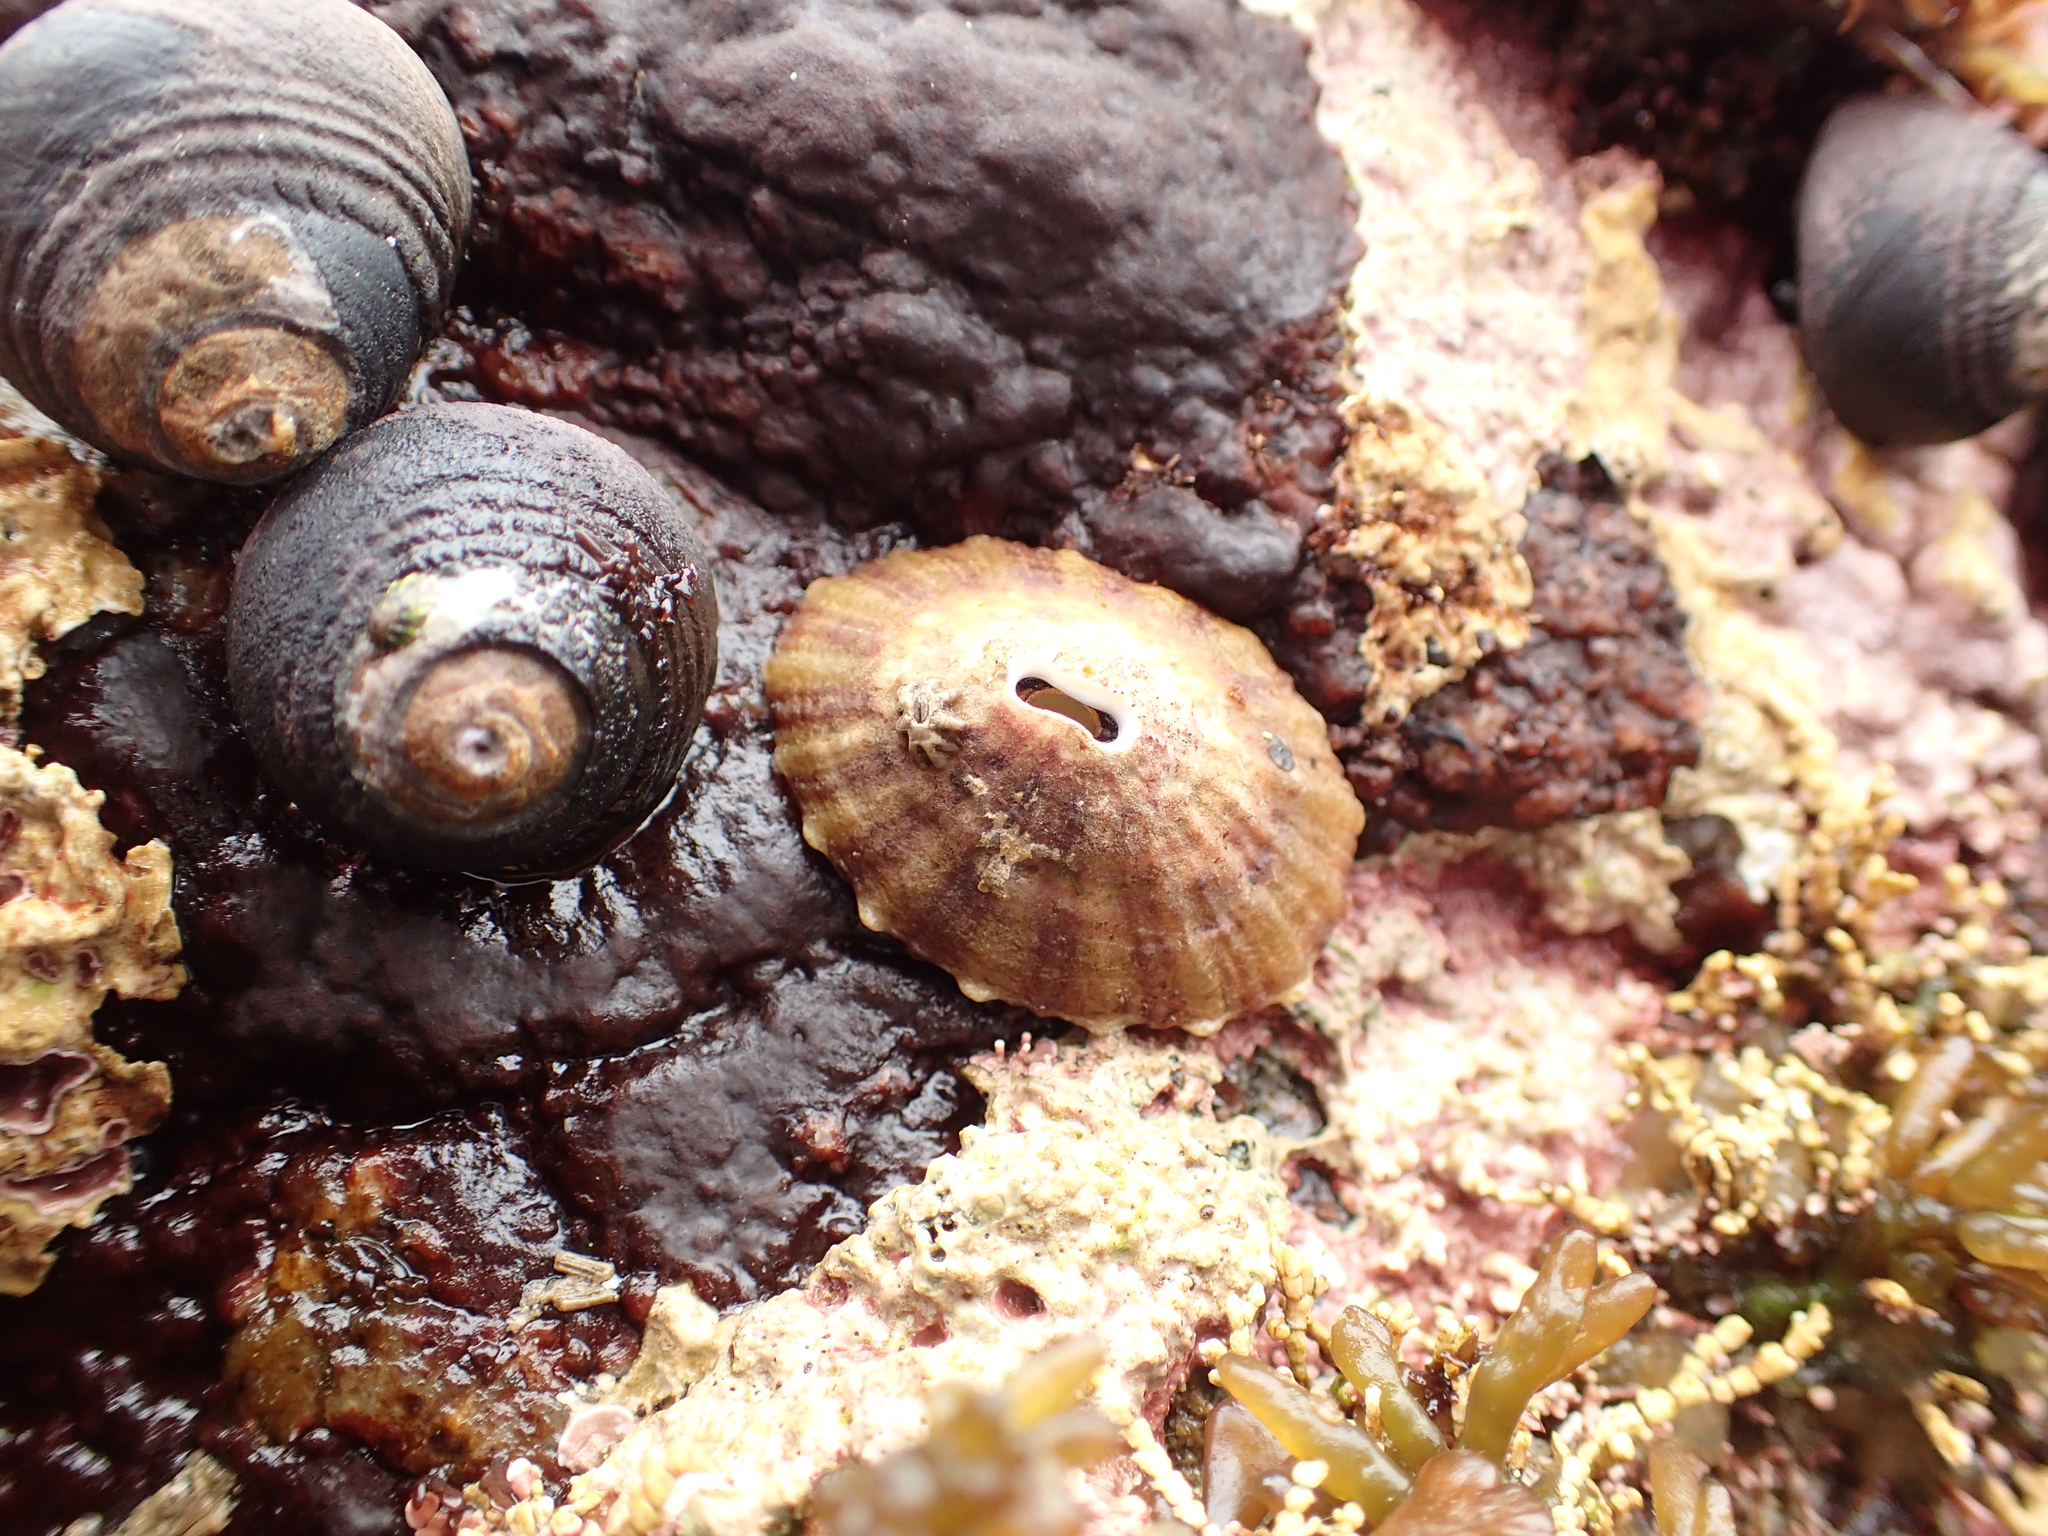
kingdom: Animalia
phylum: Mollusca
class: Gastropoda
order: Lepetellida
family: Fissurellidae
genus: Fissurella
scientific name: Fissurella volcano
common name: Volcano keyhole limpet
